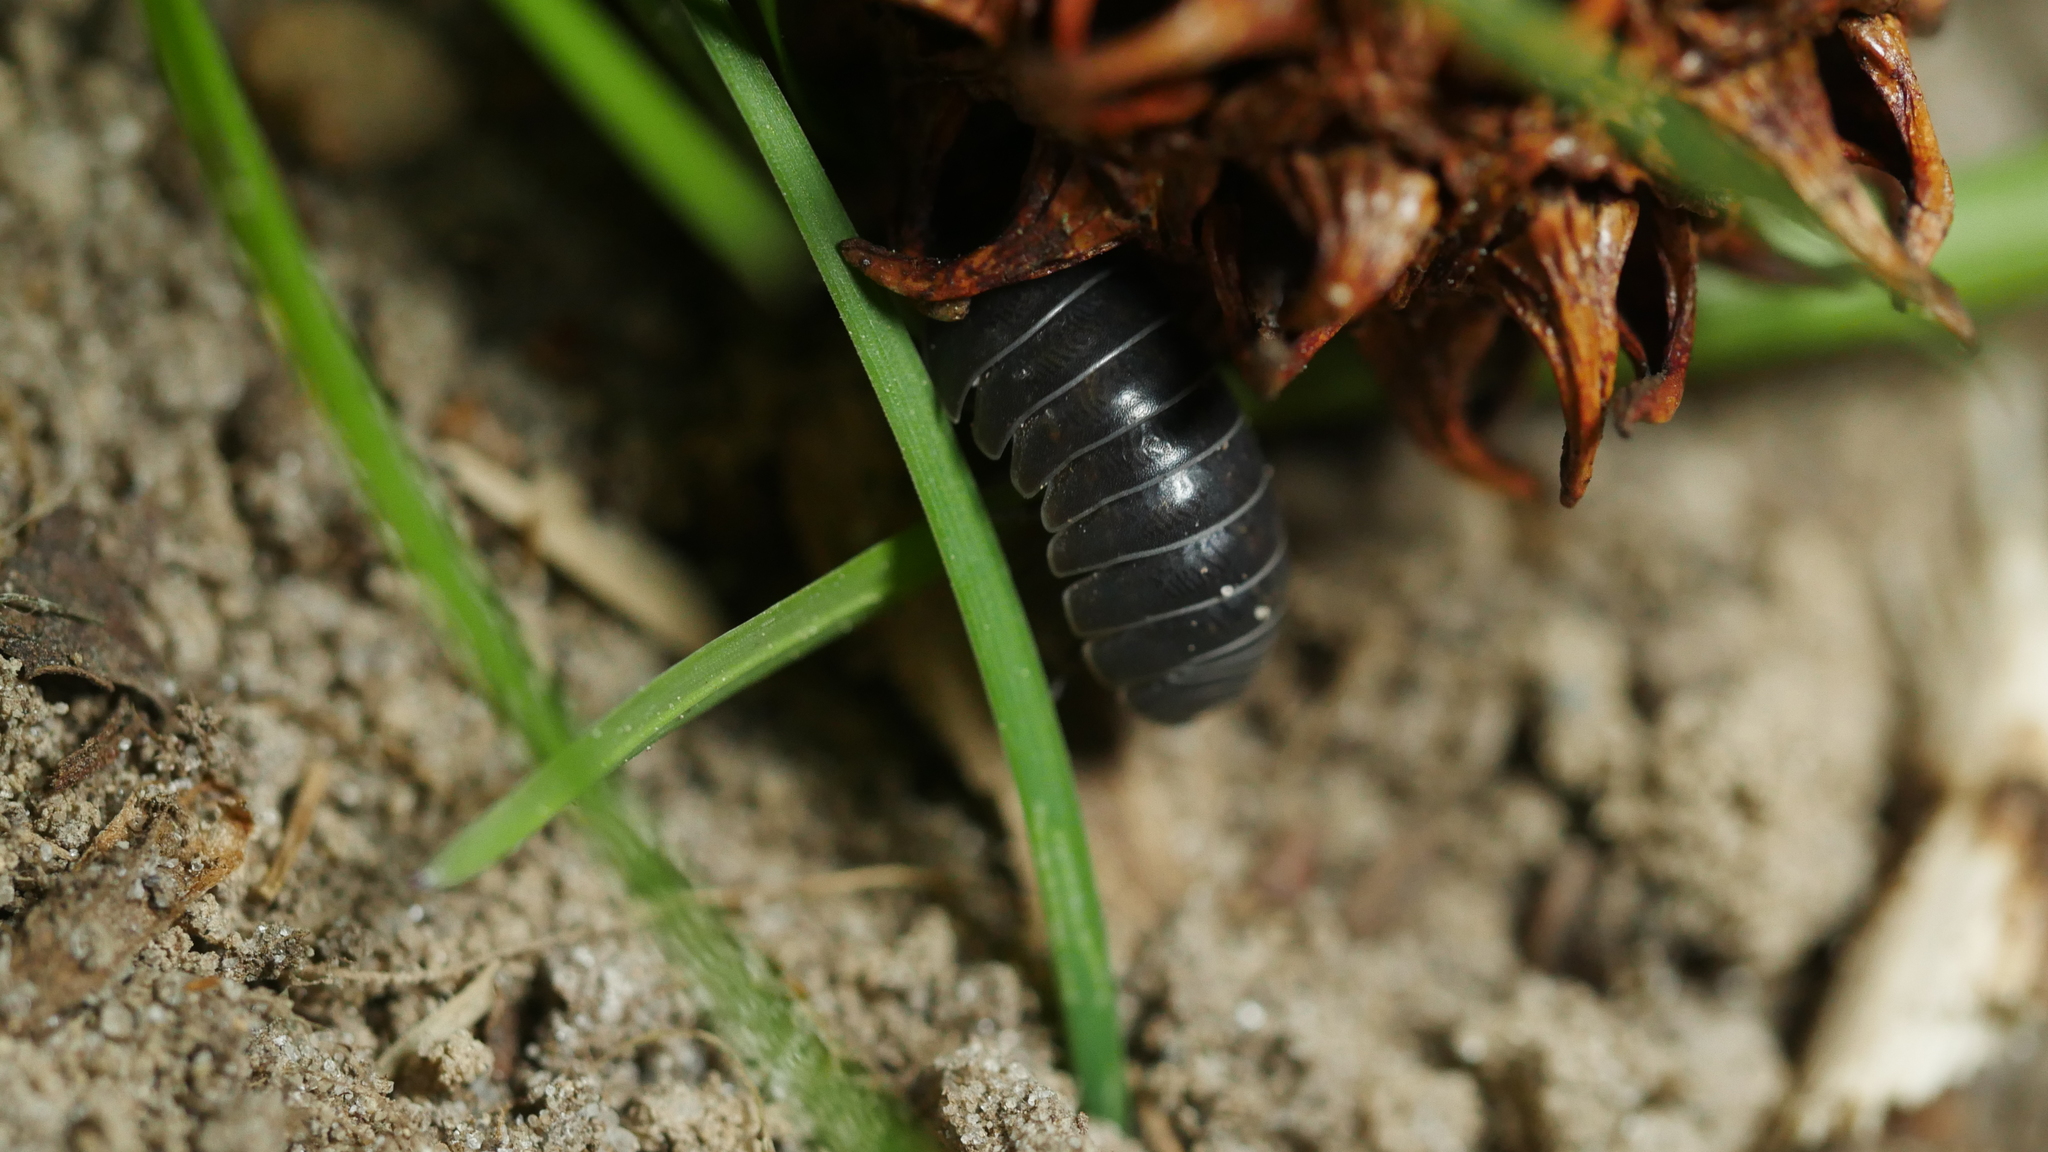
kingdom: Animalia
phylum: Arthropoda
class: Malacostraca
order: Isopoda
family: Armadillidiidae
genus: Armadillidium
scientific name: Armadillidium vulgare
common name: Common pill woodlouse
